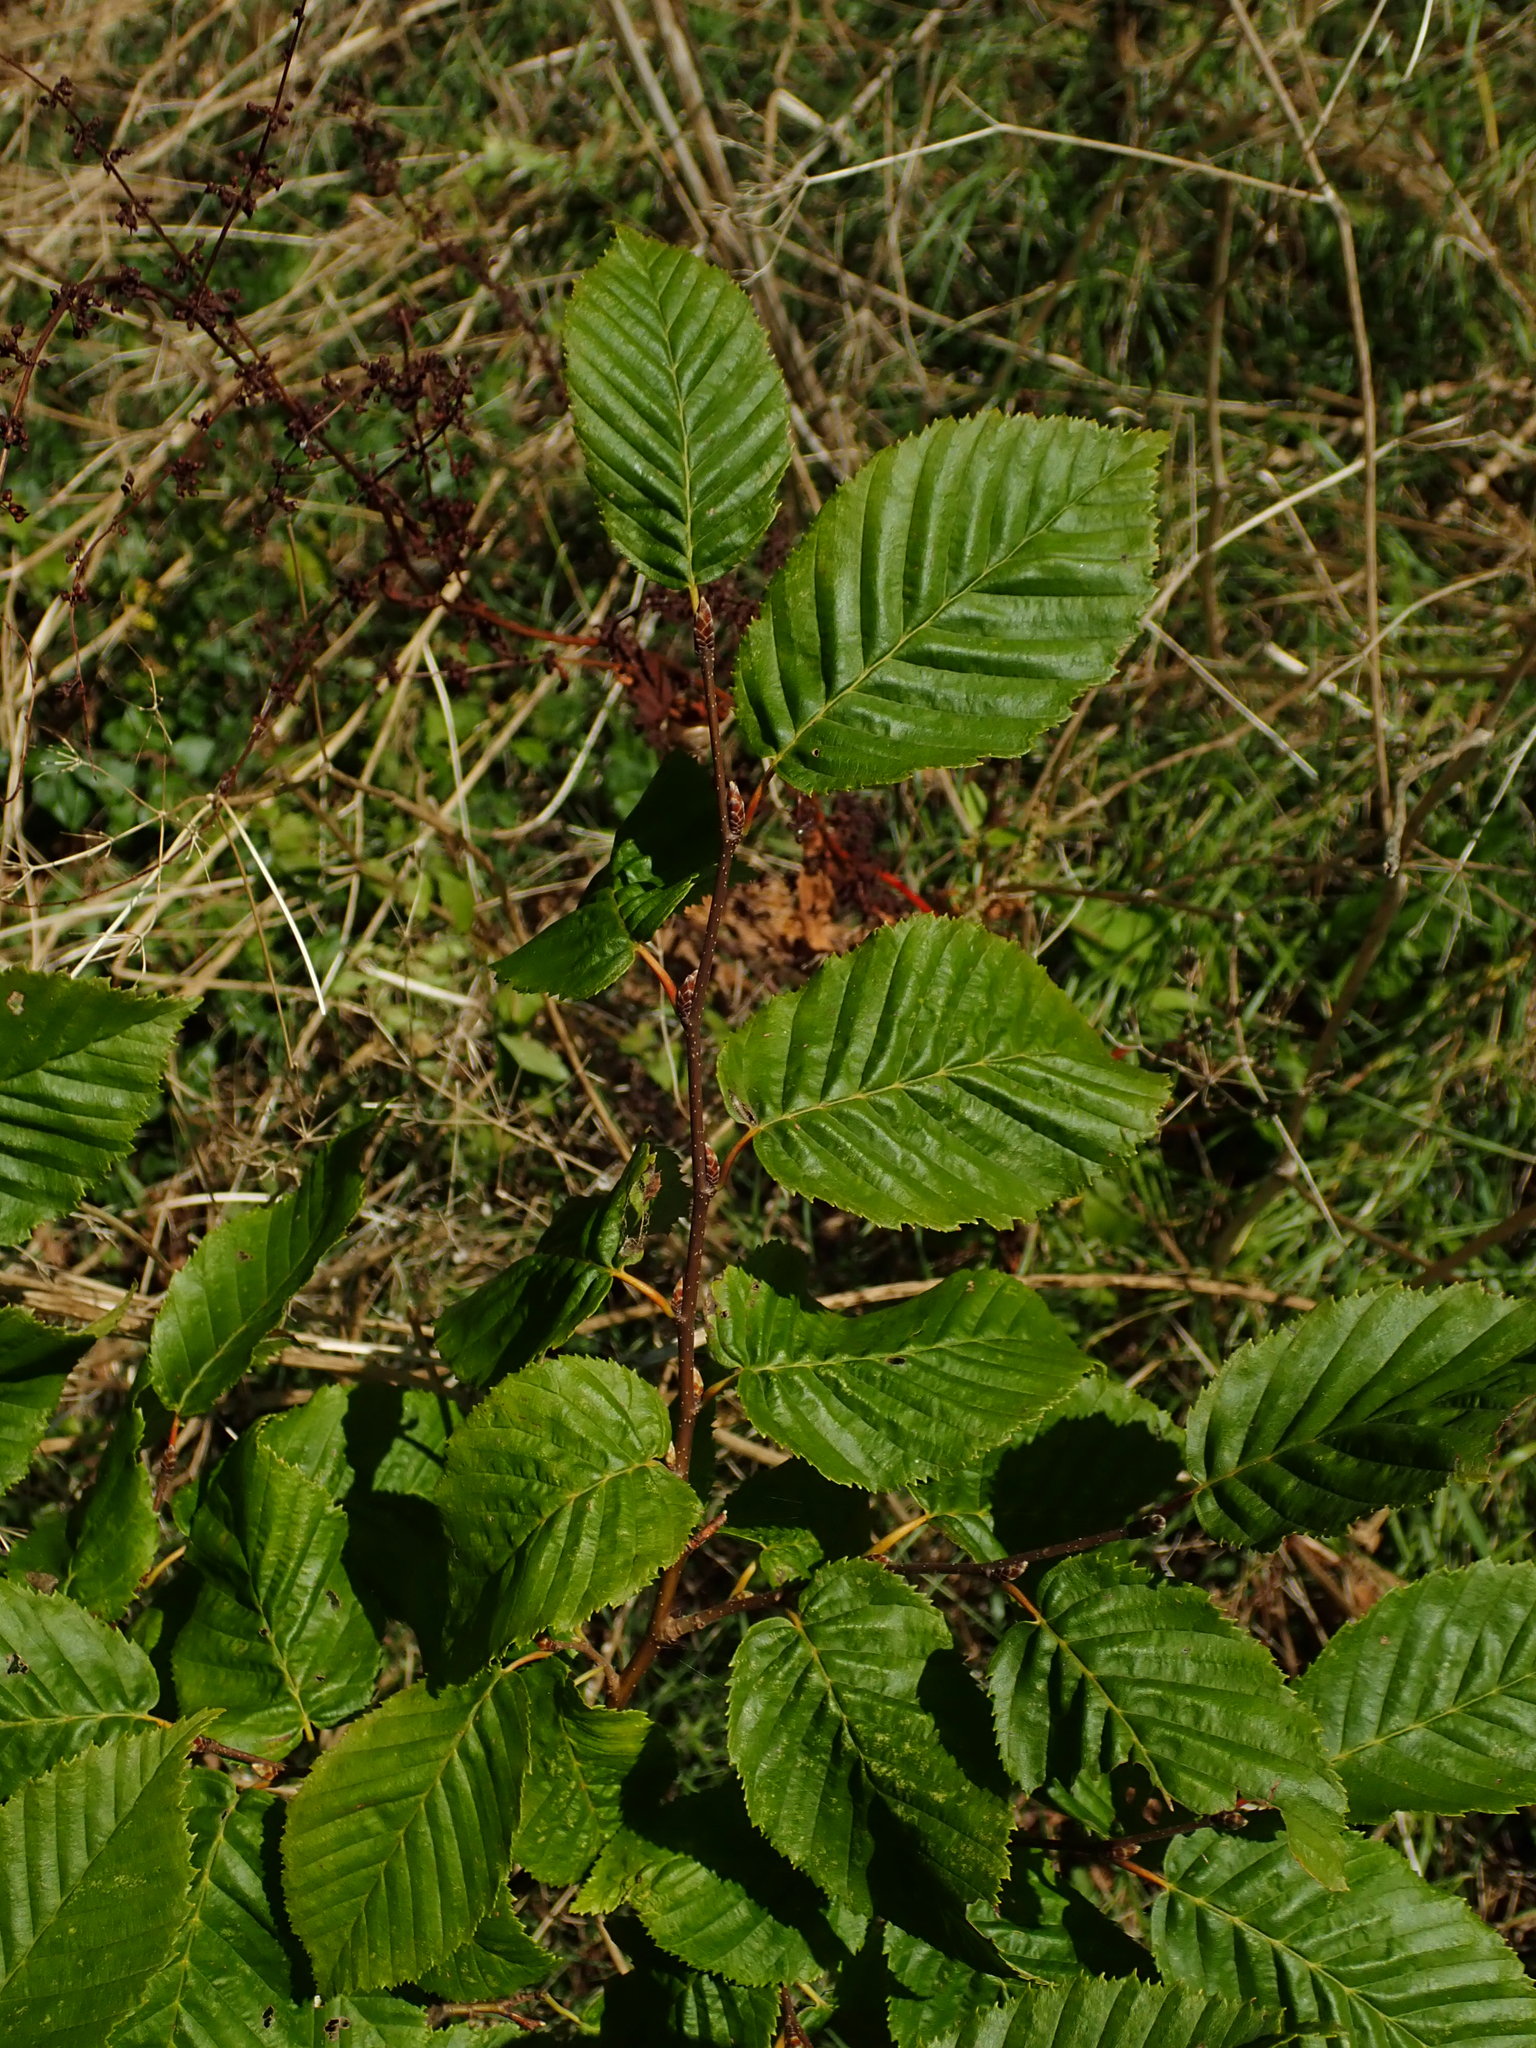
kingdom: Plantae
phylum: Tracheophyta
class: Magnoliopsida
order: Fagales
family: Betulaceae
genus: Carpinus
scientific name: Carpinus betulus
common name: Hornbeam
